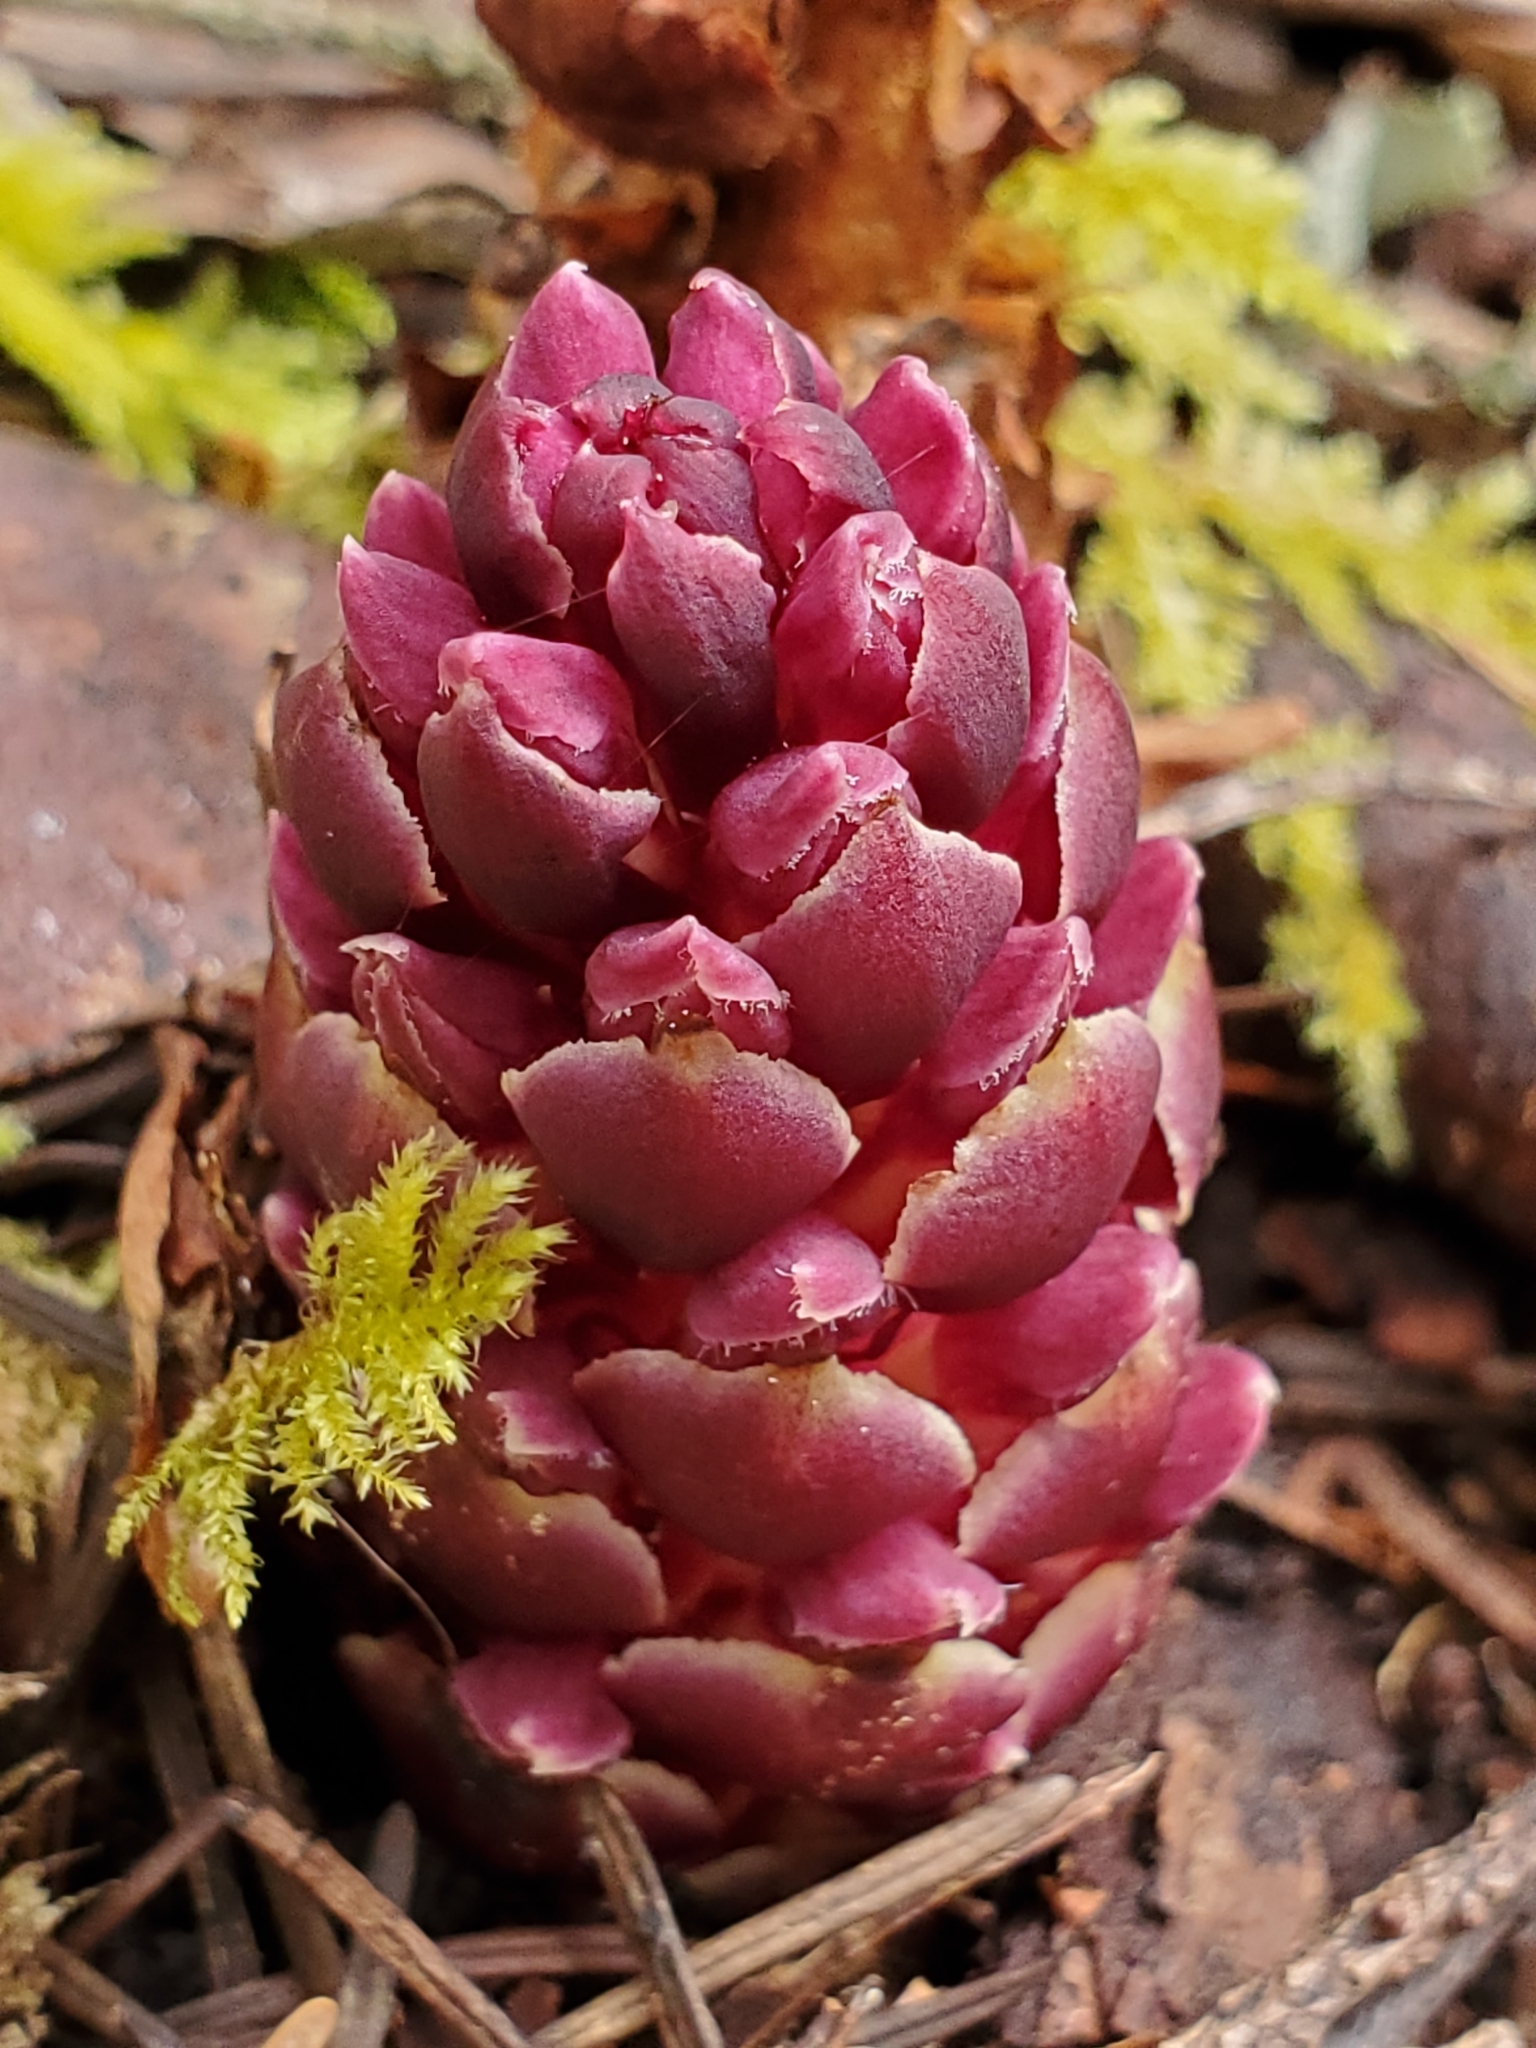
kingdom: Plantae
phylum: Tracheophyta
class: Magnoliopsida
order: Lamiales
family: Orobanchaceae
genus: Kopsiopsis
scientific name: Kopsiopsis hookeri
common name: Hooker's groundcone
